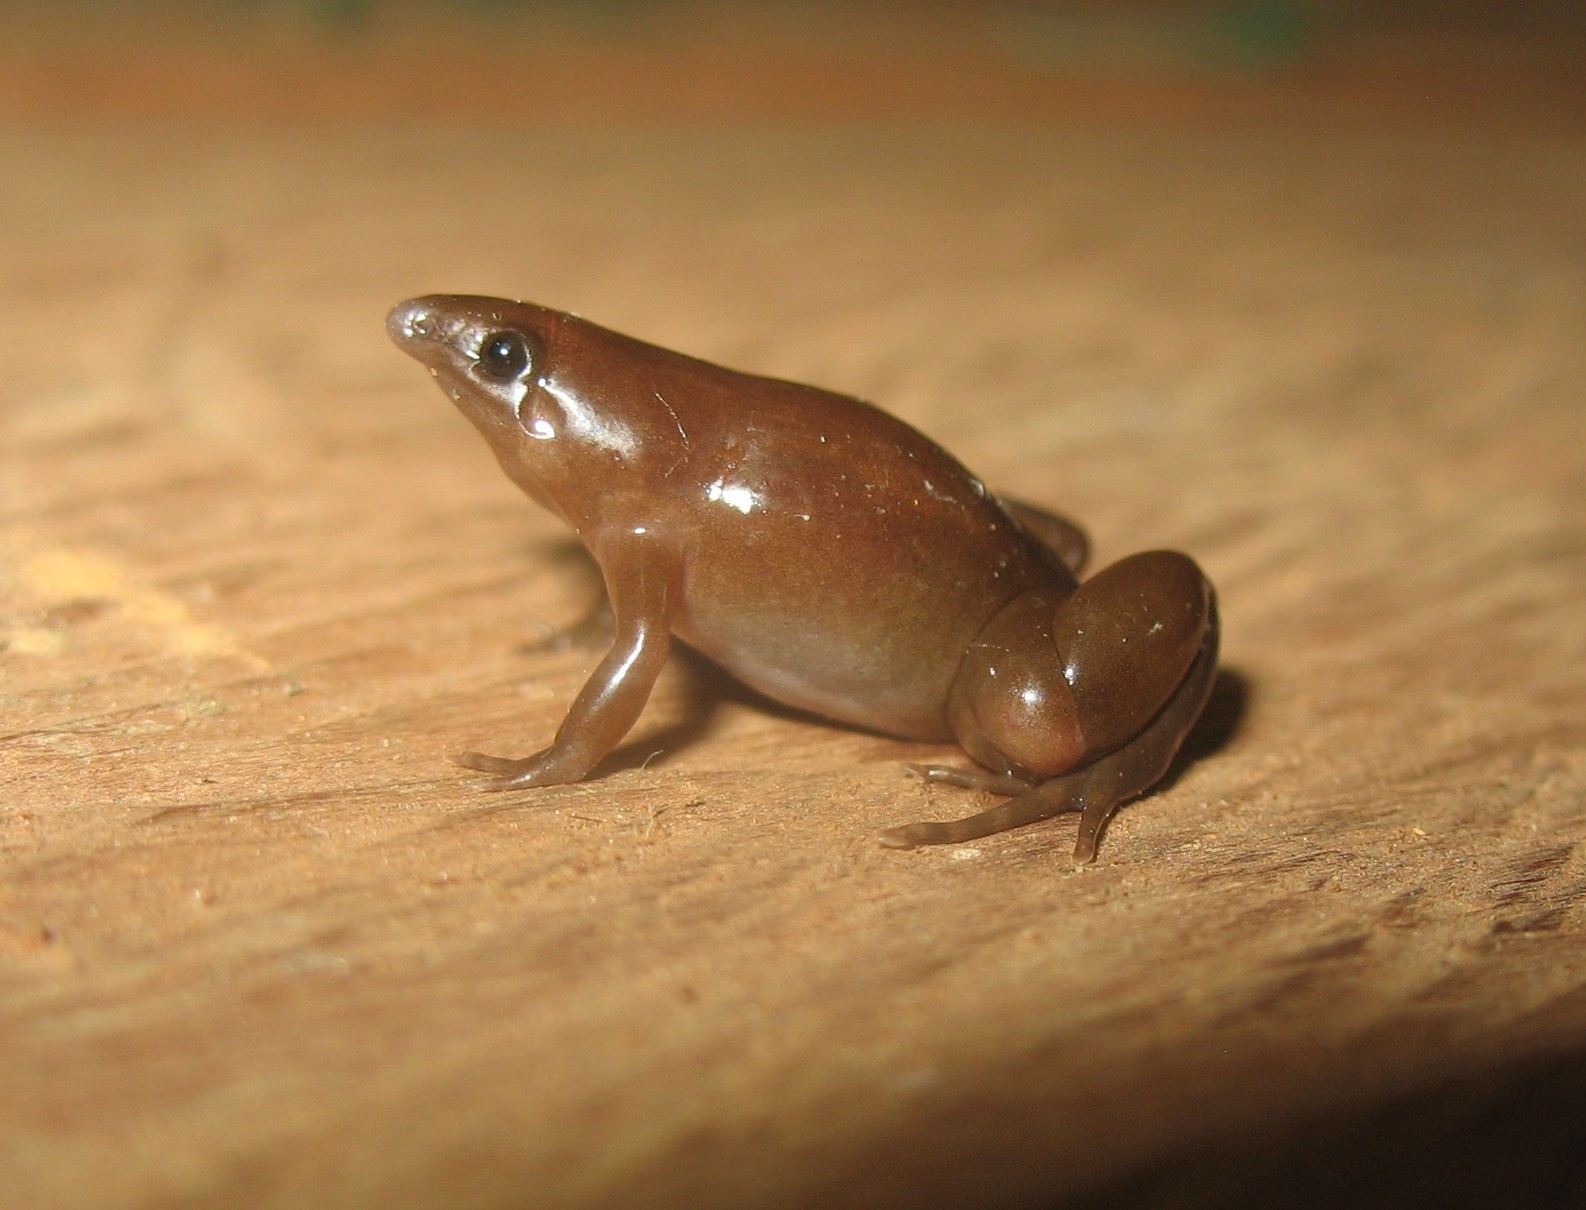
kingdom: Animalia
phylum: Chordata
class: Amphibia
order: Anura
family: Microhylidae
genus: Synapturanus
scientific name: Synapturanus rabus
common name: Vaupes disc frog
